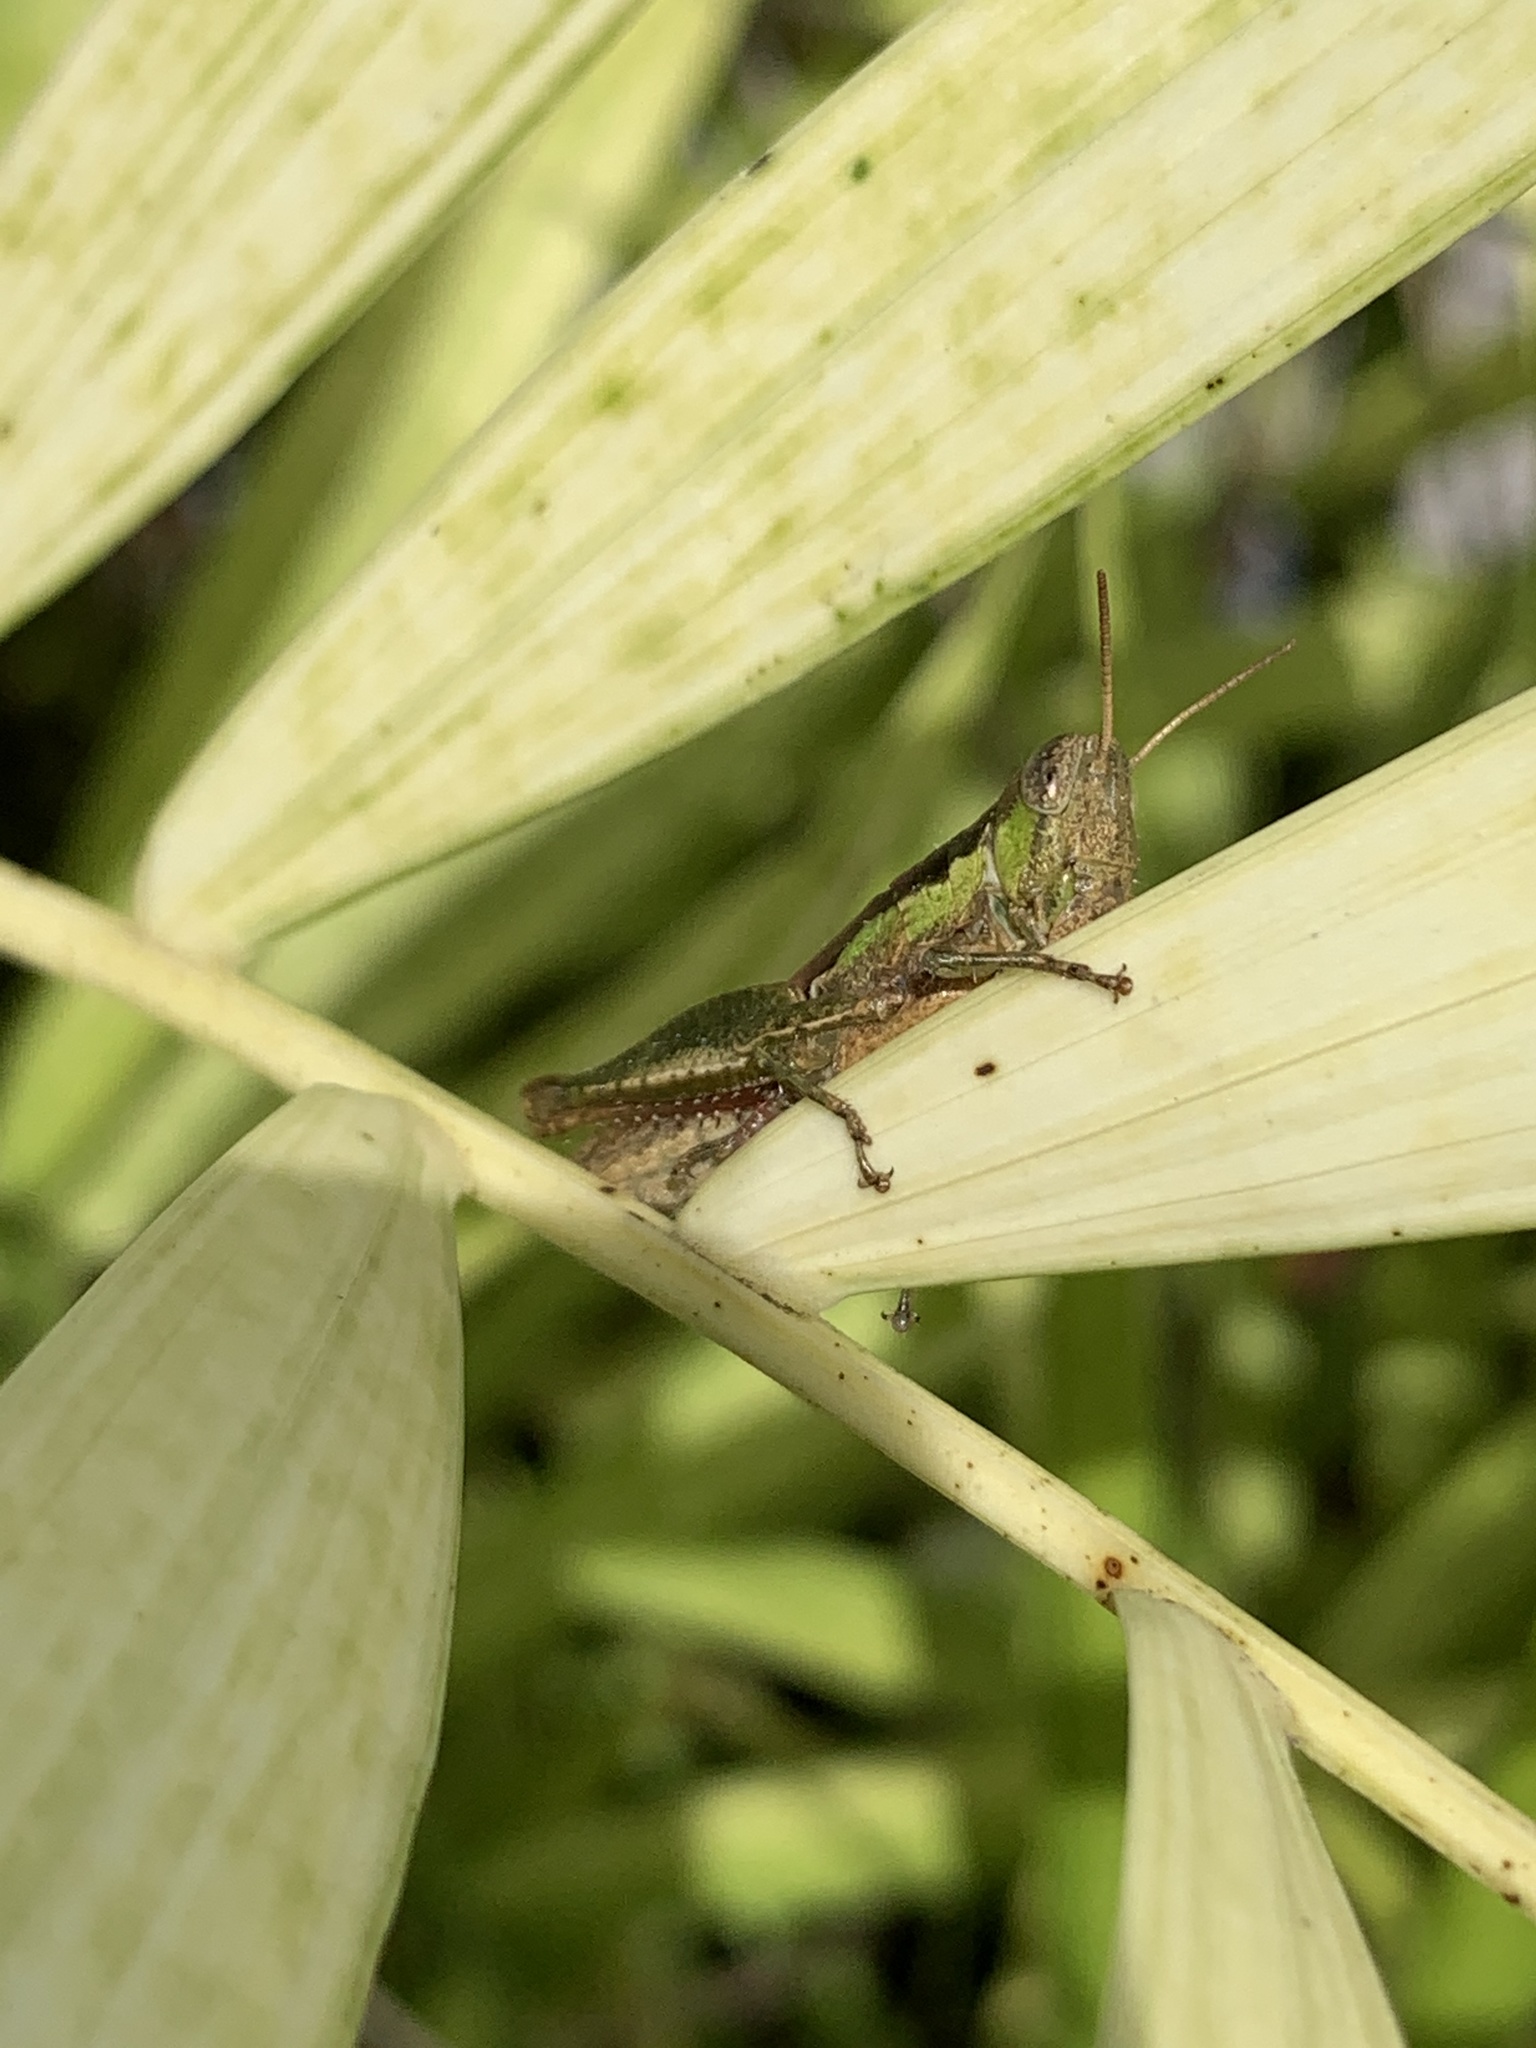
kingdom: Animalia
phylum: Arthropoda
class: Insecta
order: Orthoptera
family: Acrididae
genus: Pseudoxya
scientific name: Pseudoxya diminuta
